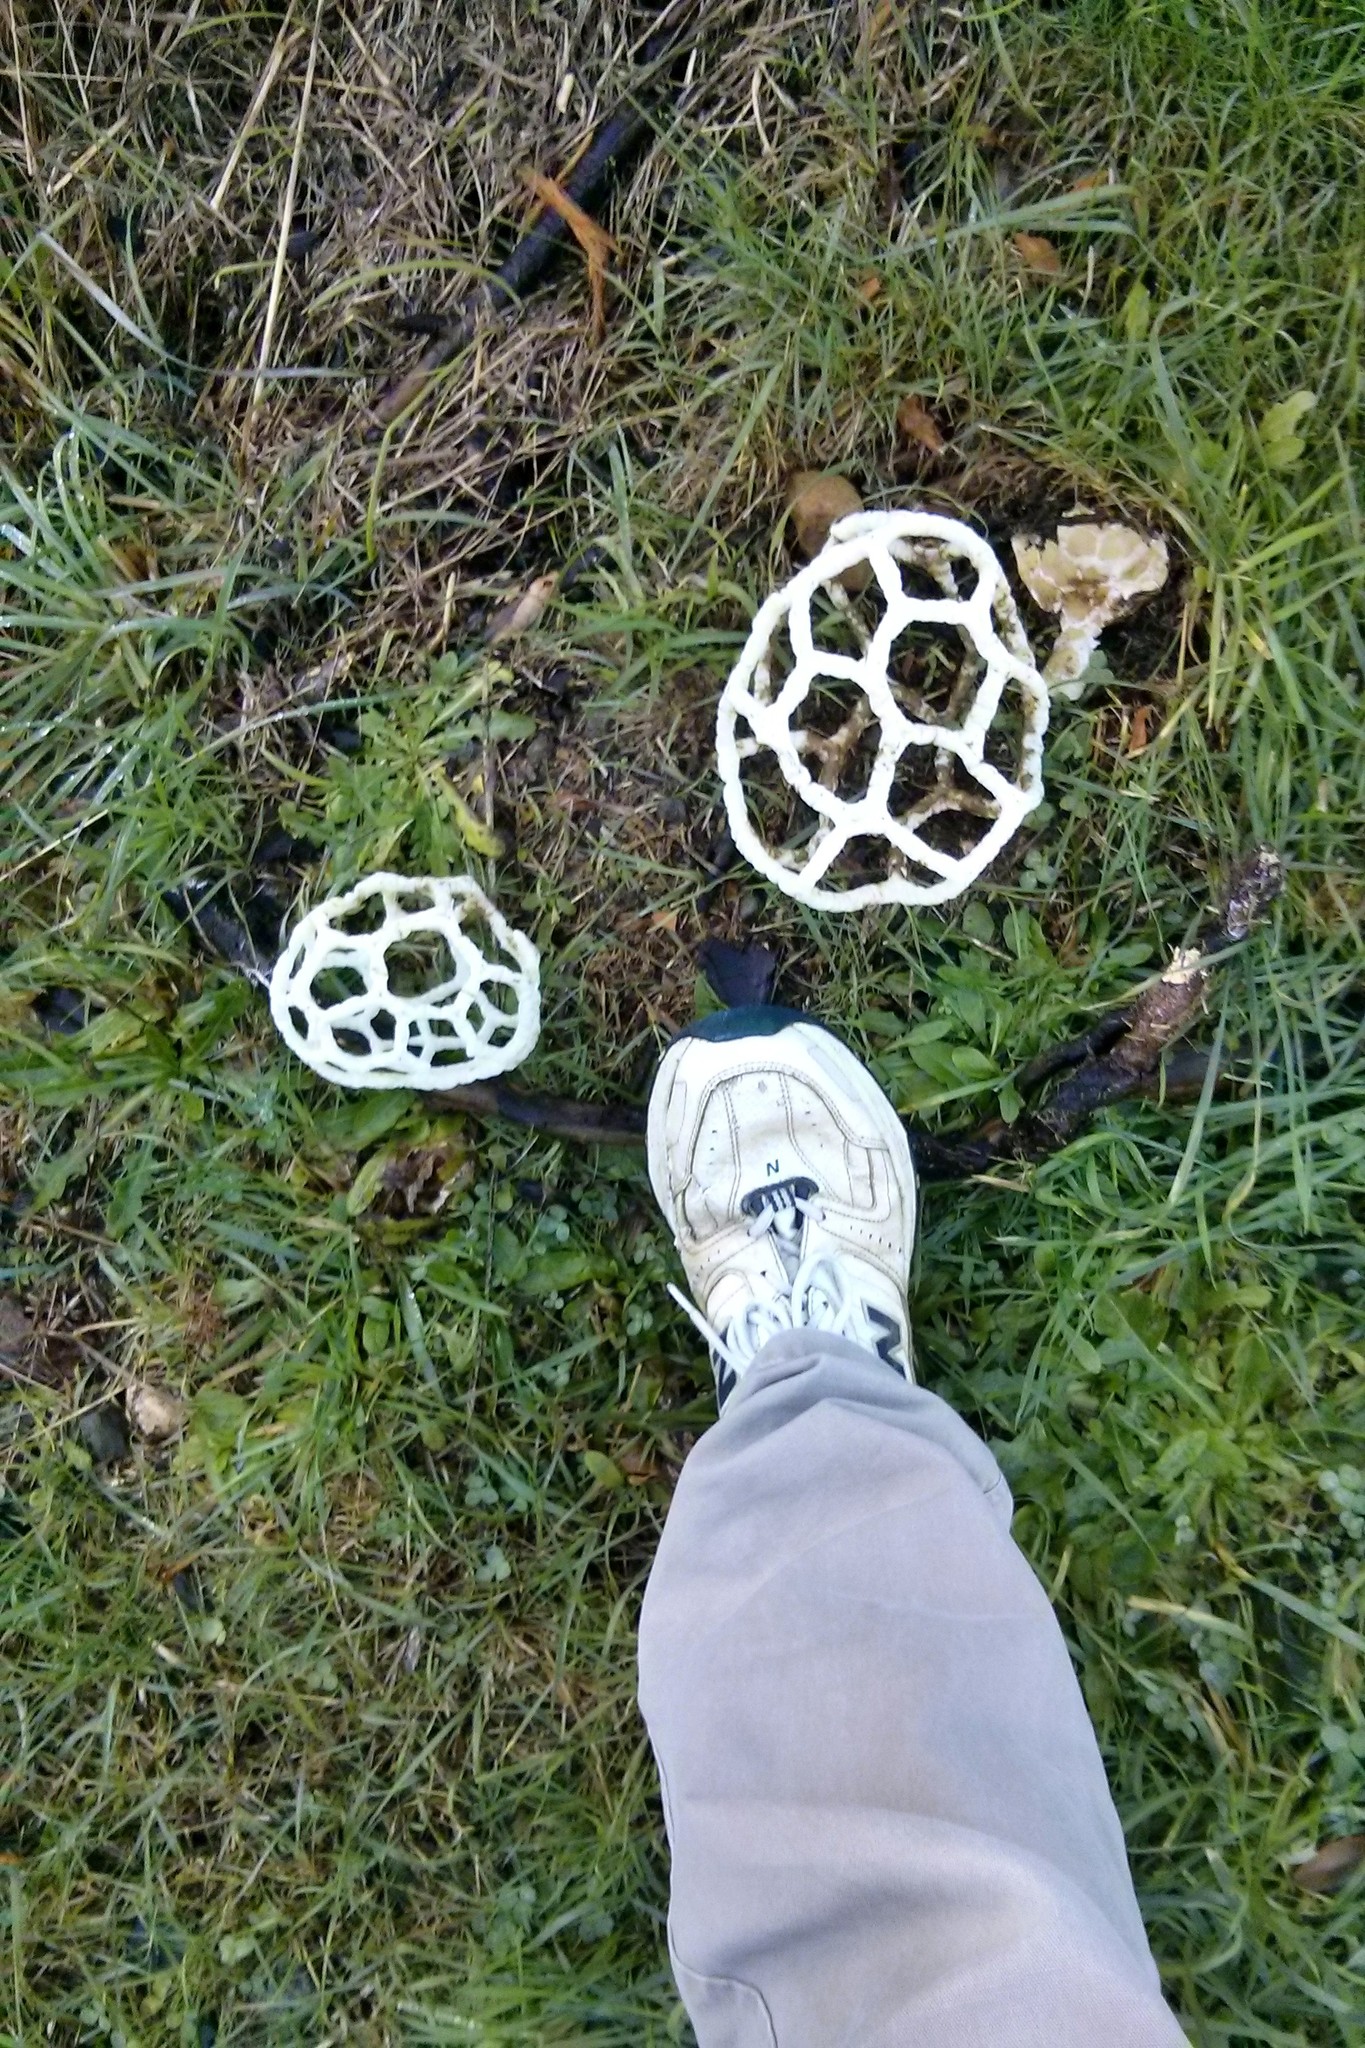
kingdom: Fungi
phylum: Basidiomycota
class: Agaricomycetes
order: Phallales
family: Phallaceae
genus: Ileodictyon
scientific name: Ileodictyon cibarium
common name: Basket fungus
